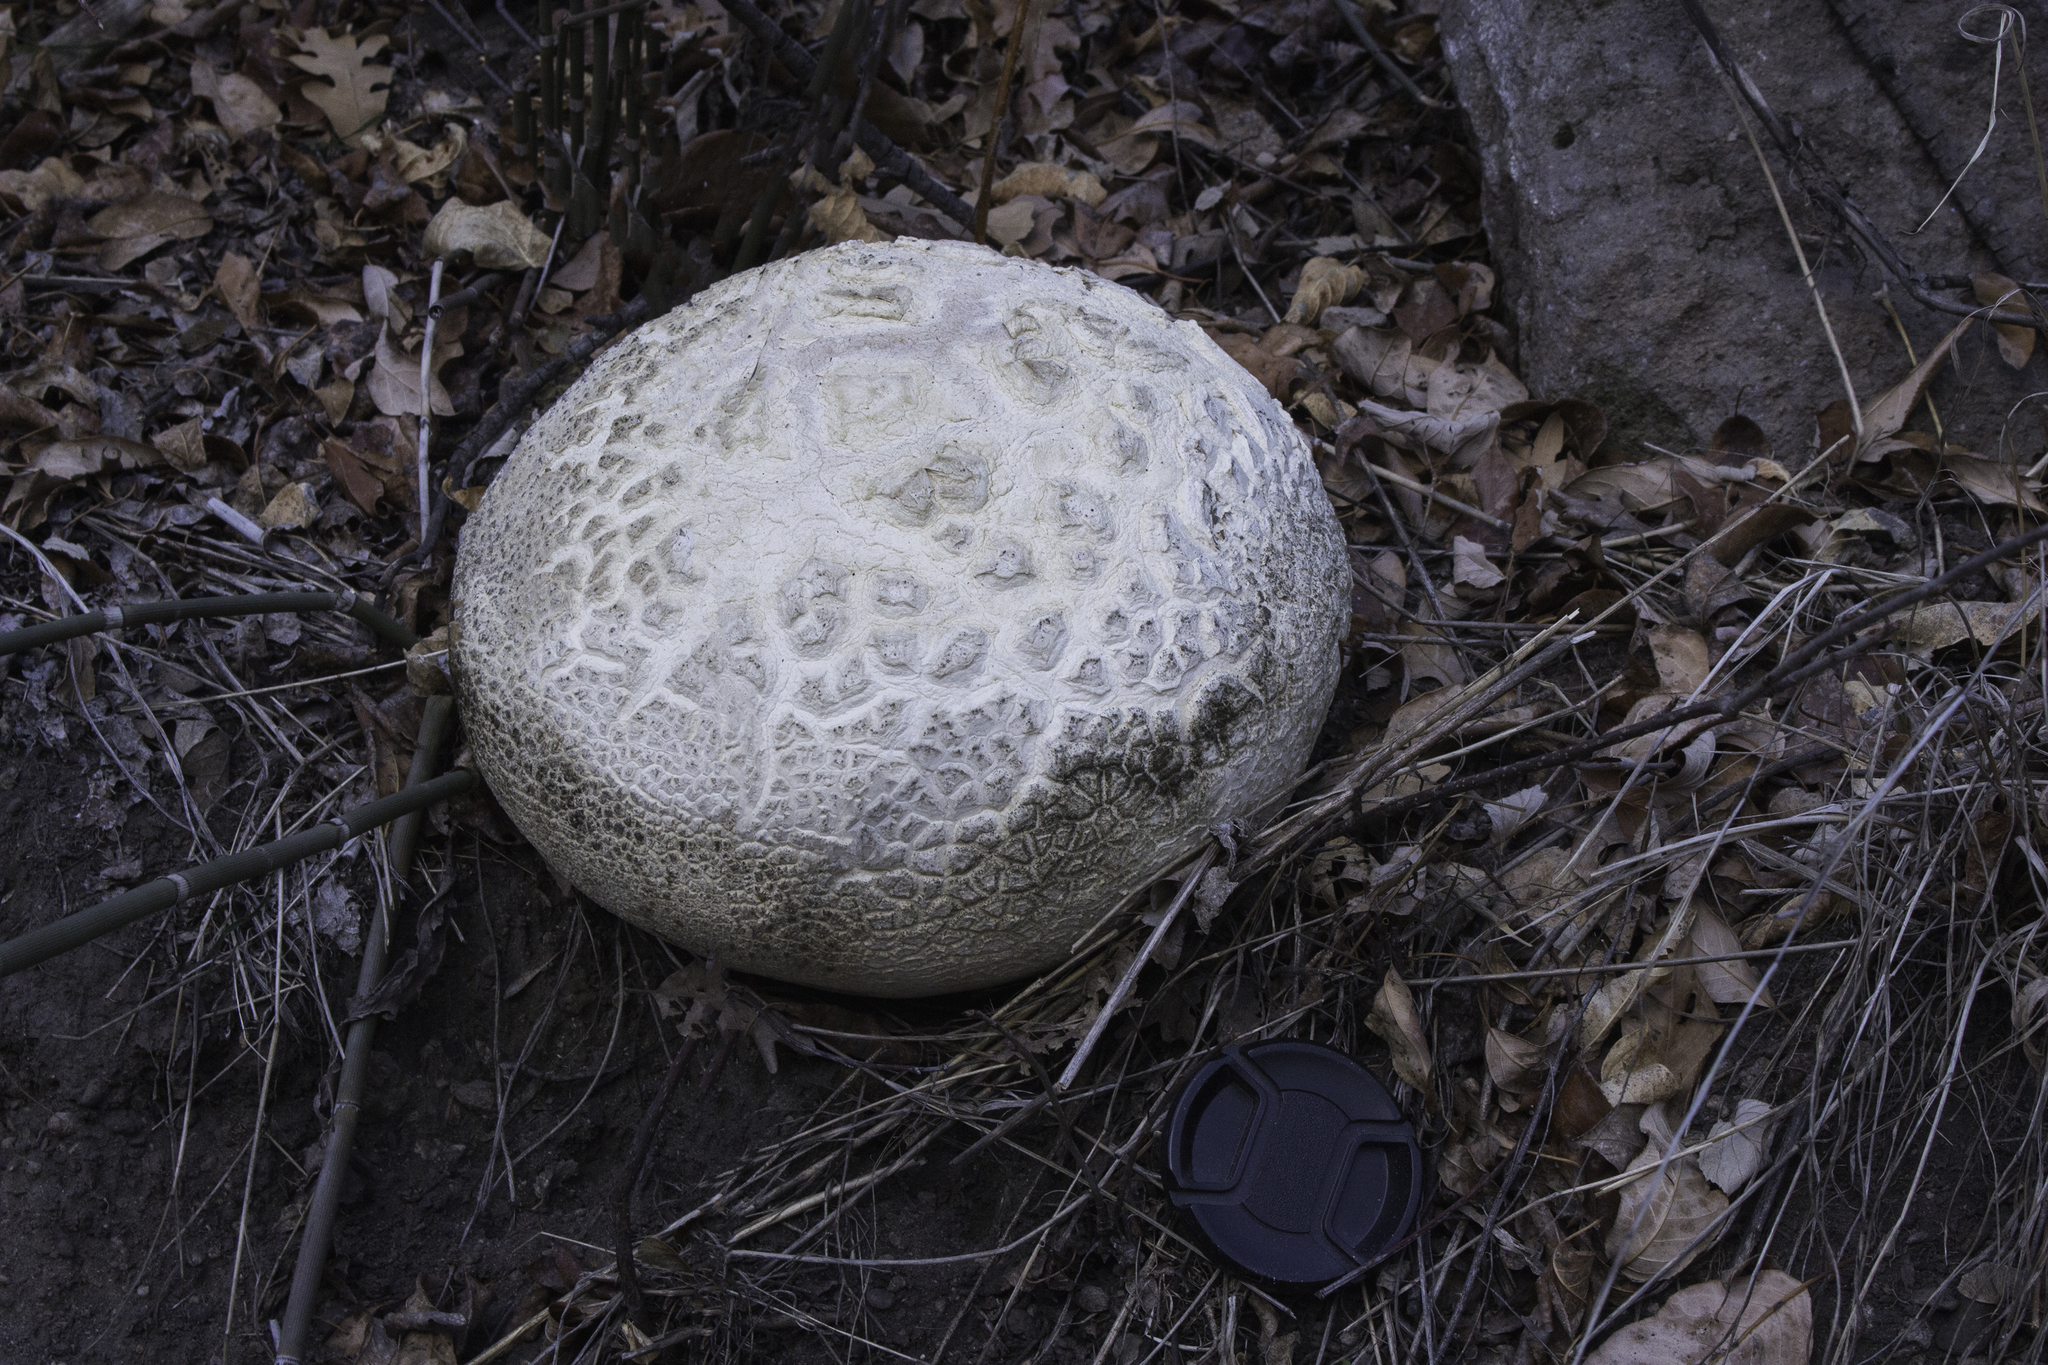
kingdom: Fungi
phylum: Basidiomycota
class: Agaricomycetes
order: Agaricales
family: Lycoperdaceae
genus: Calvatia
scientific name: Calvatia booniana
